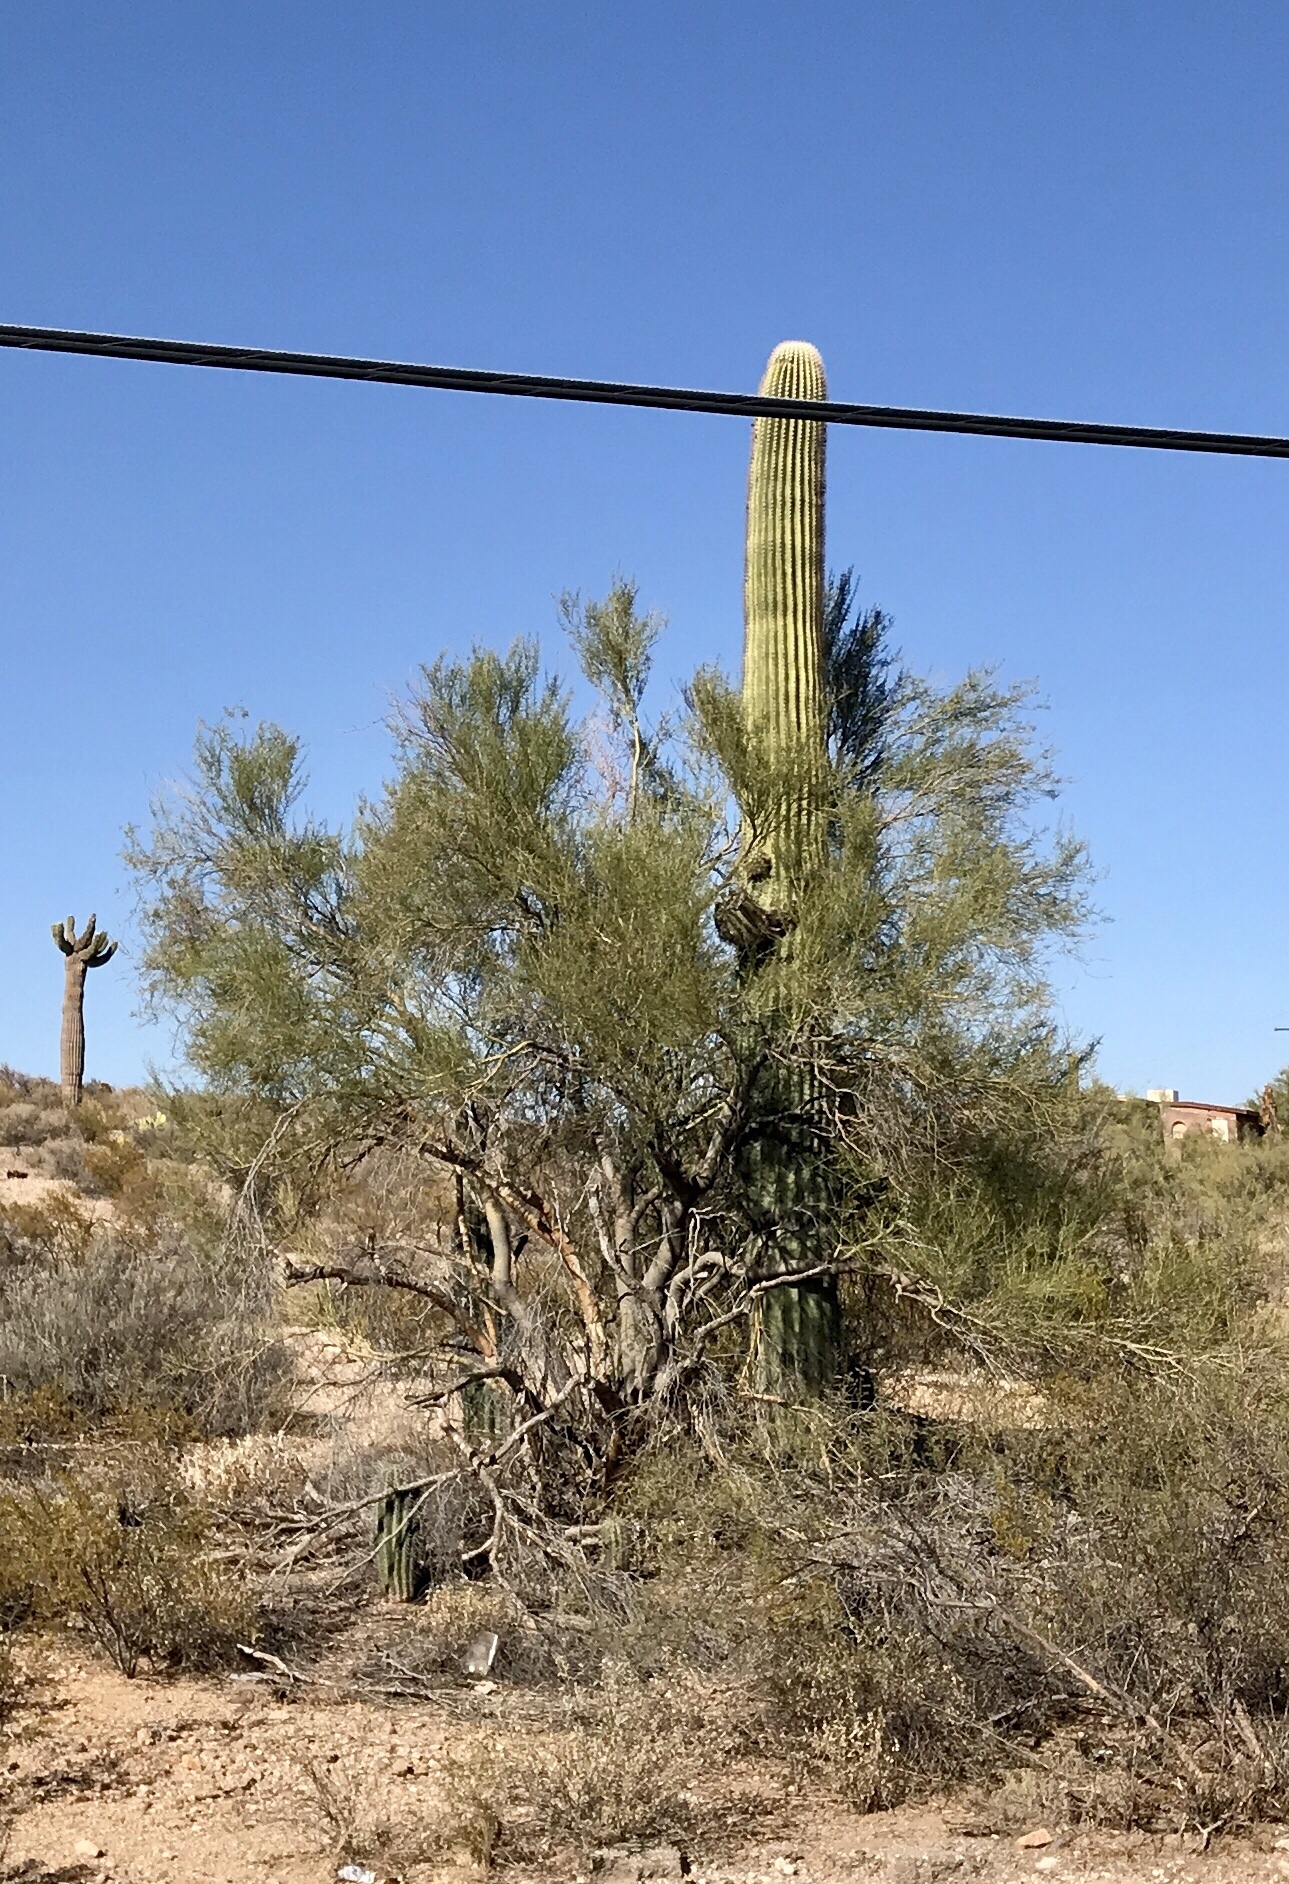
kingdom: Plantae
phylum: Tracheophyta
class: Magnoliopsida
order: Caryophyllales
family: Cactaceae
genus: Carnegiea
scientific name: Carnegiea gigantea
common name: Saguaro
